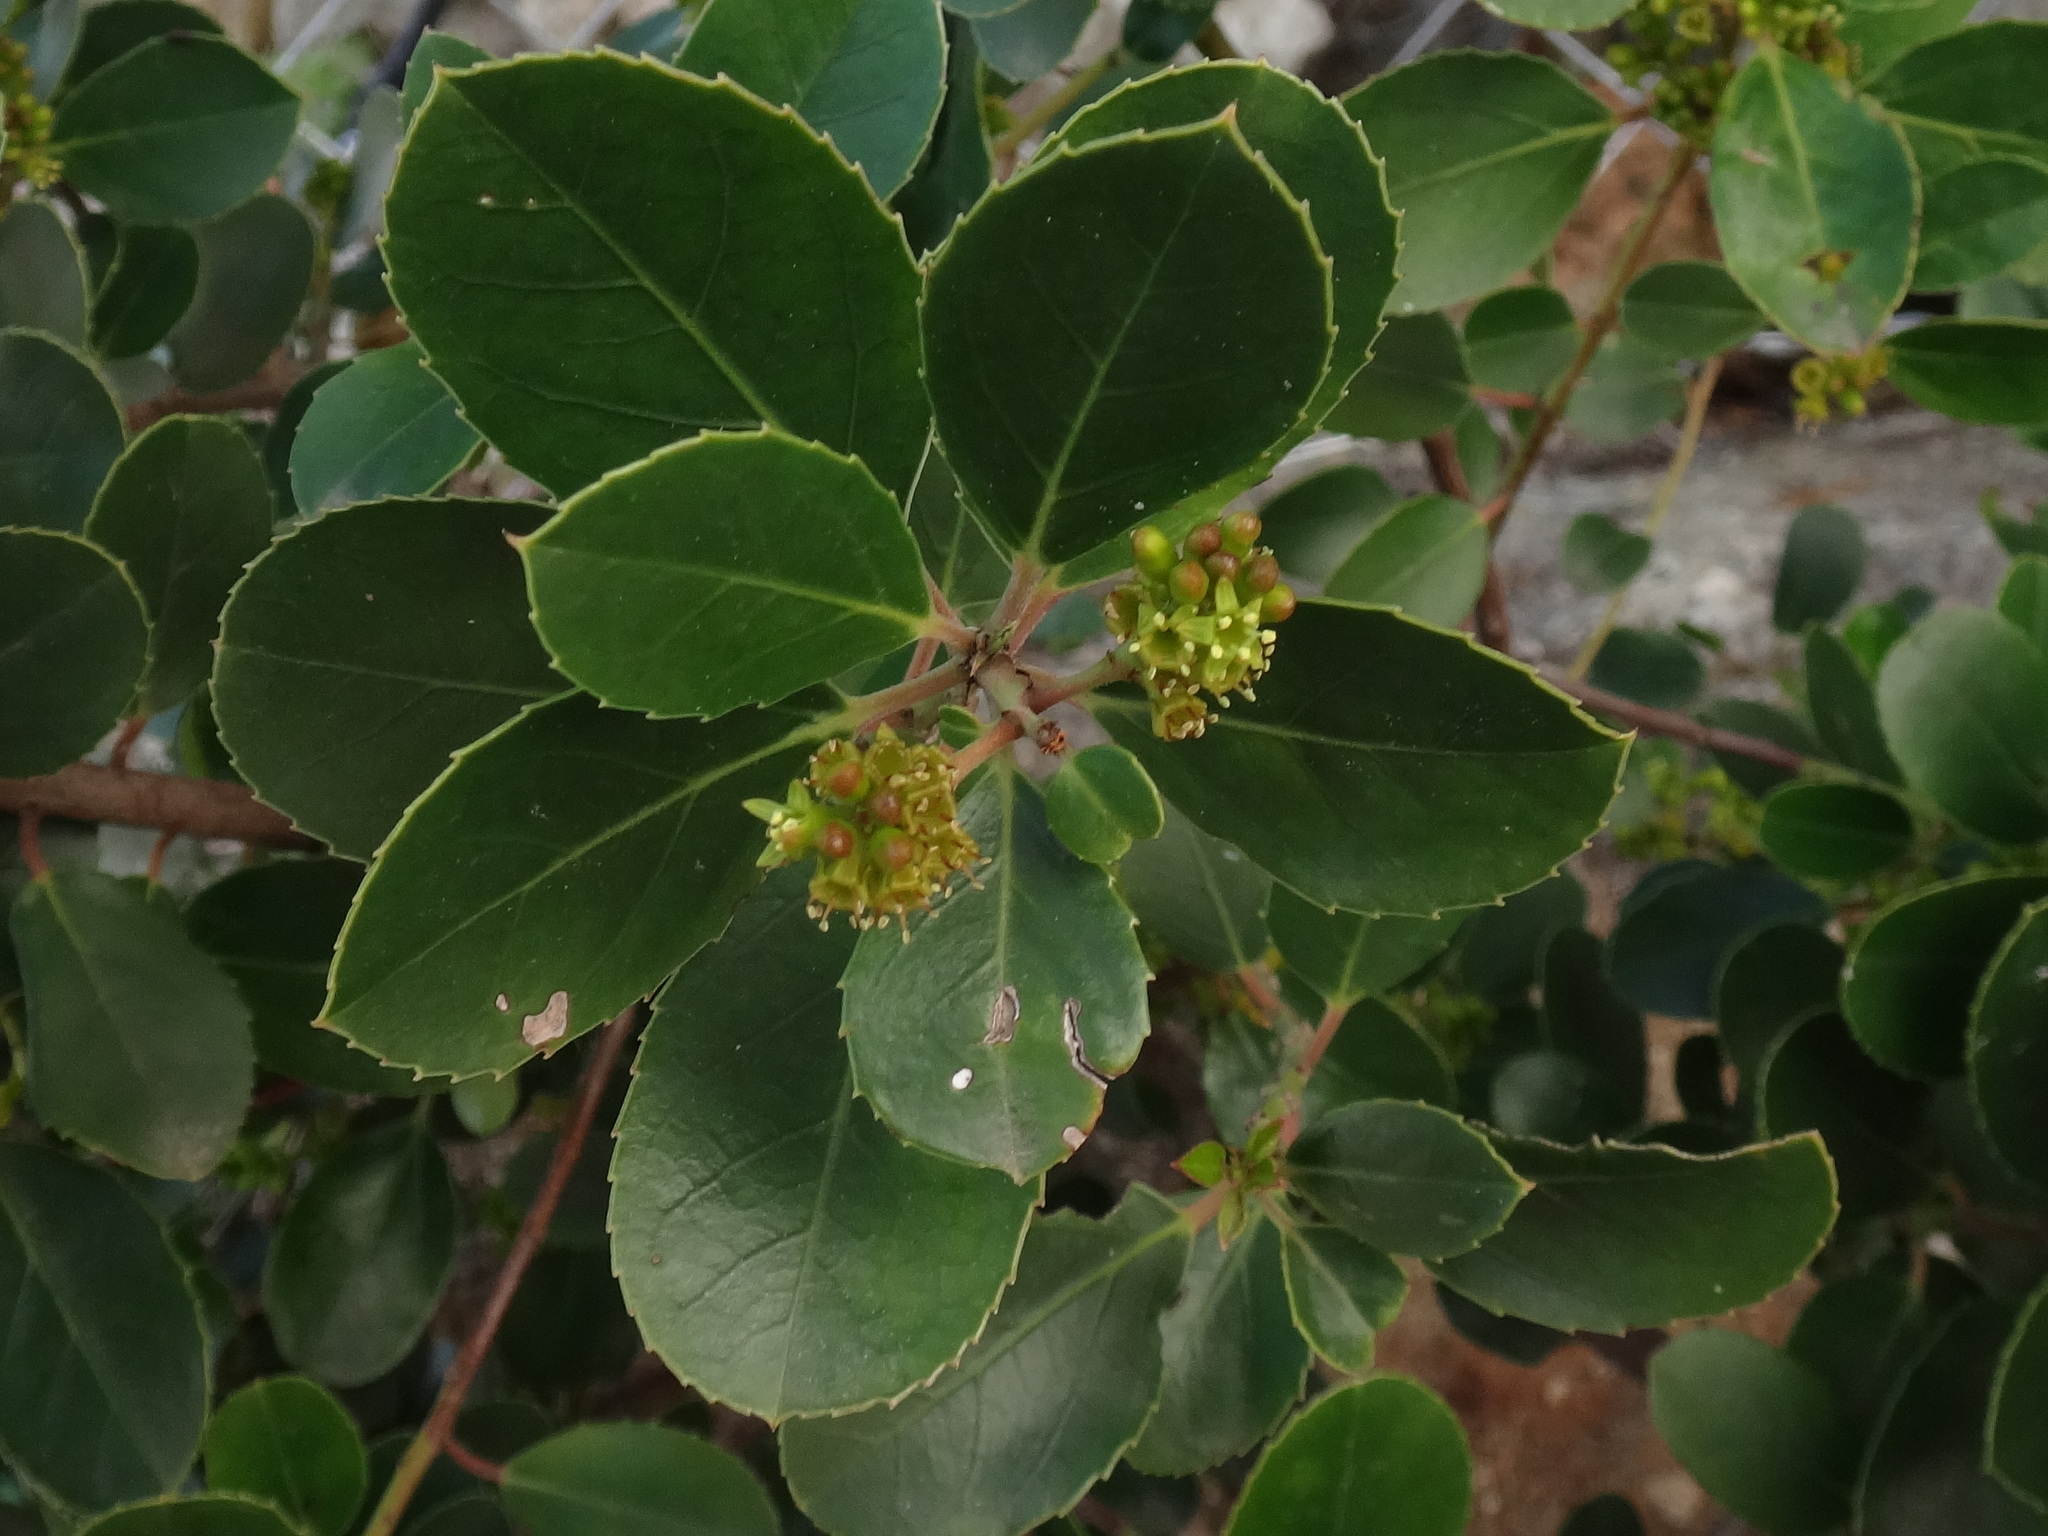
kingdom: Plantae
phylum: Tracheophyta
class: Magnoliopsida
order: Rosales
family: Rhamnaceae
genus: Rhamnus
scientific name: Rhamnus ludovici-salvatoris
